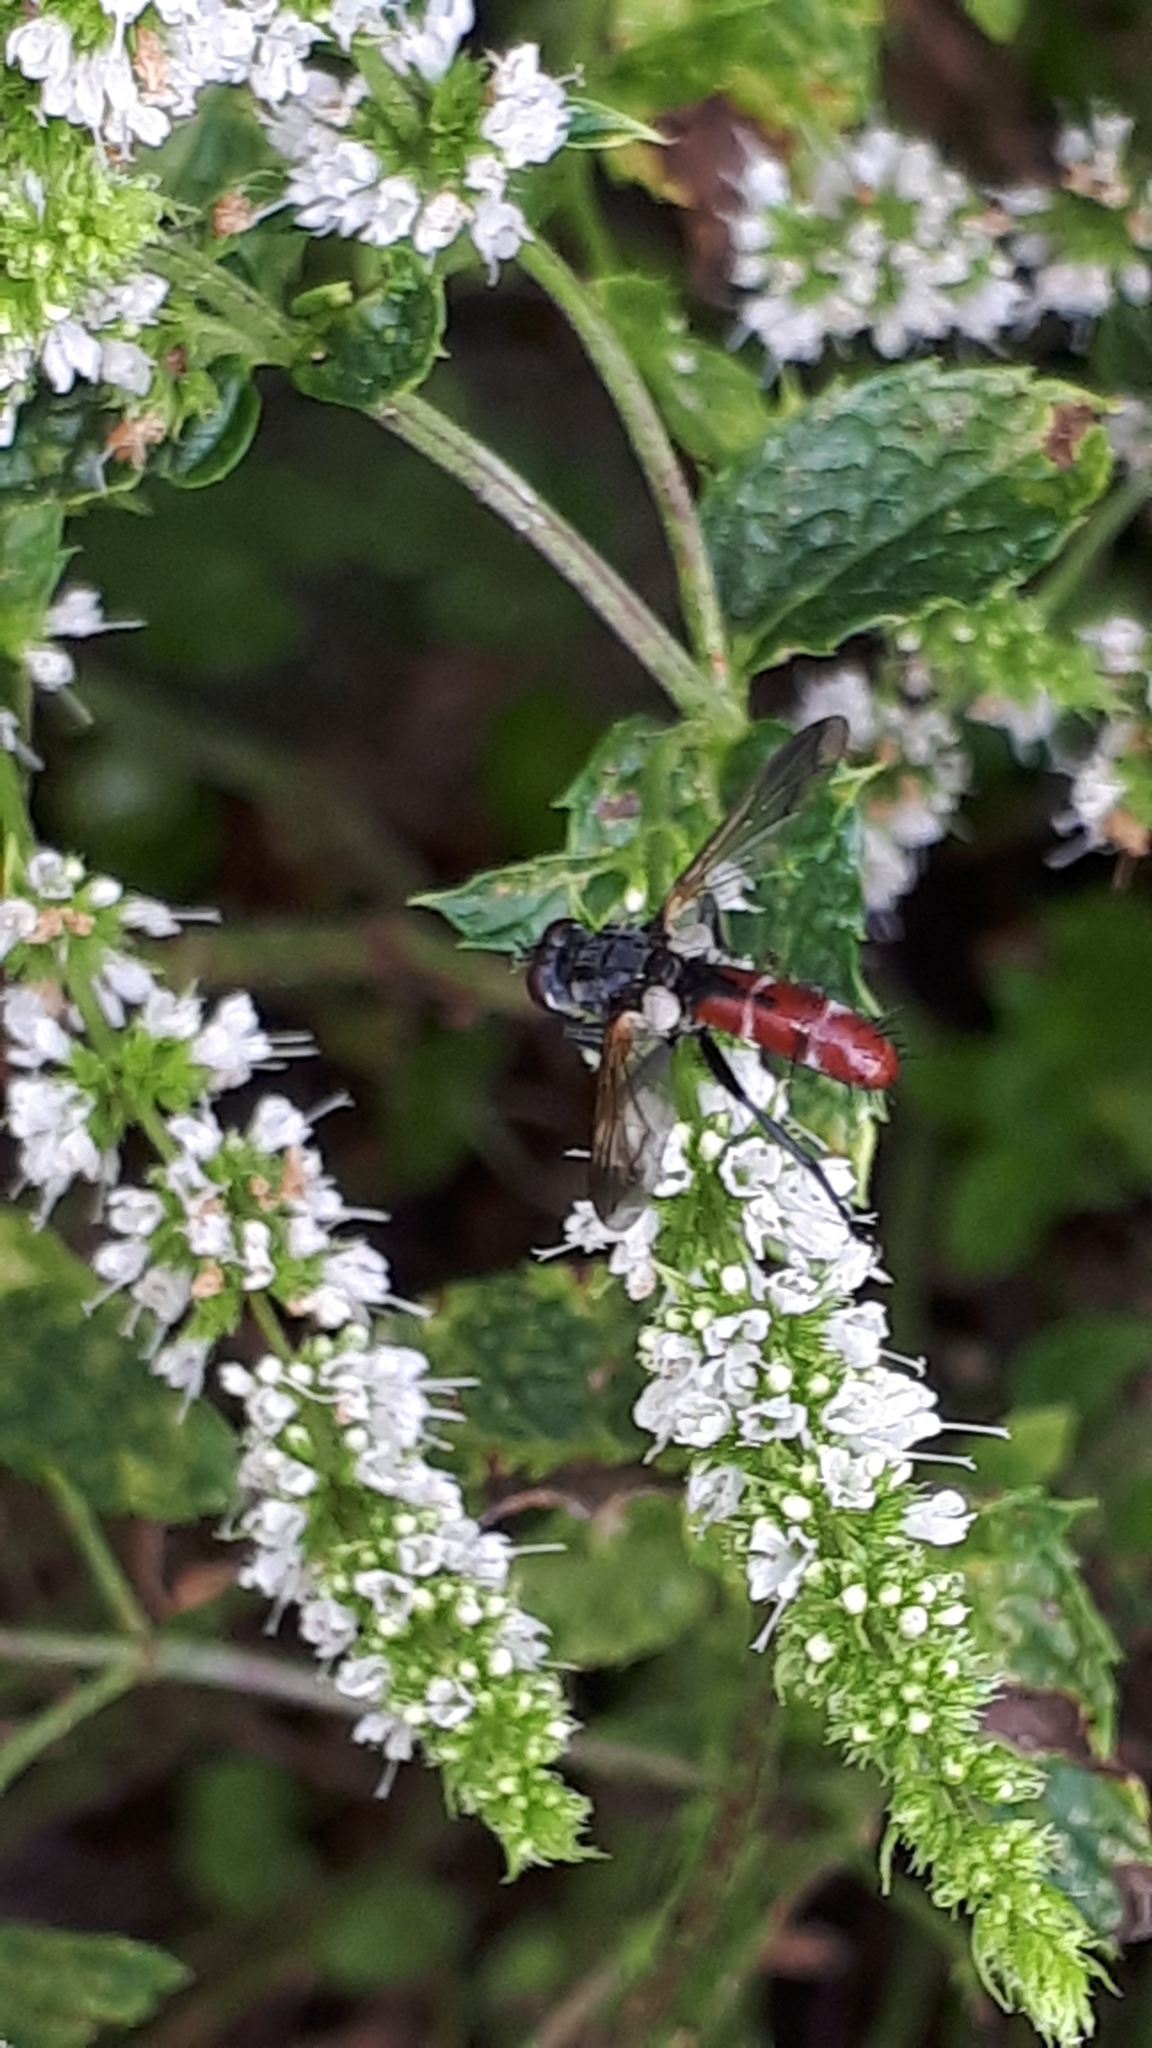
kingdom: Animalia
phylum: Arthropoda
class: Insecta
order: Diptera
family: Tachinidae
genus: Cylindromyia
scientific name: Cylindromyia bicolor
